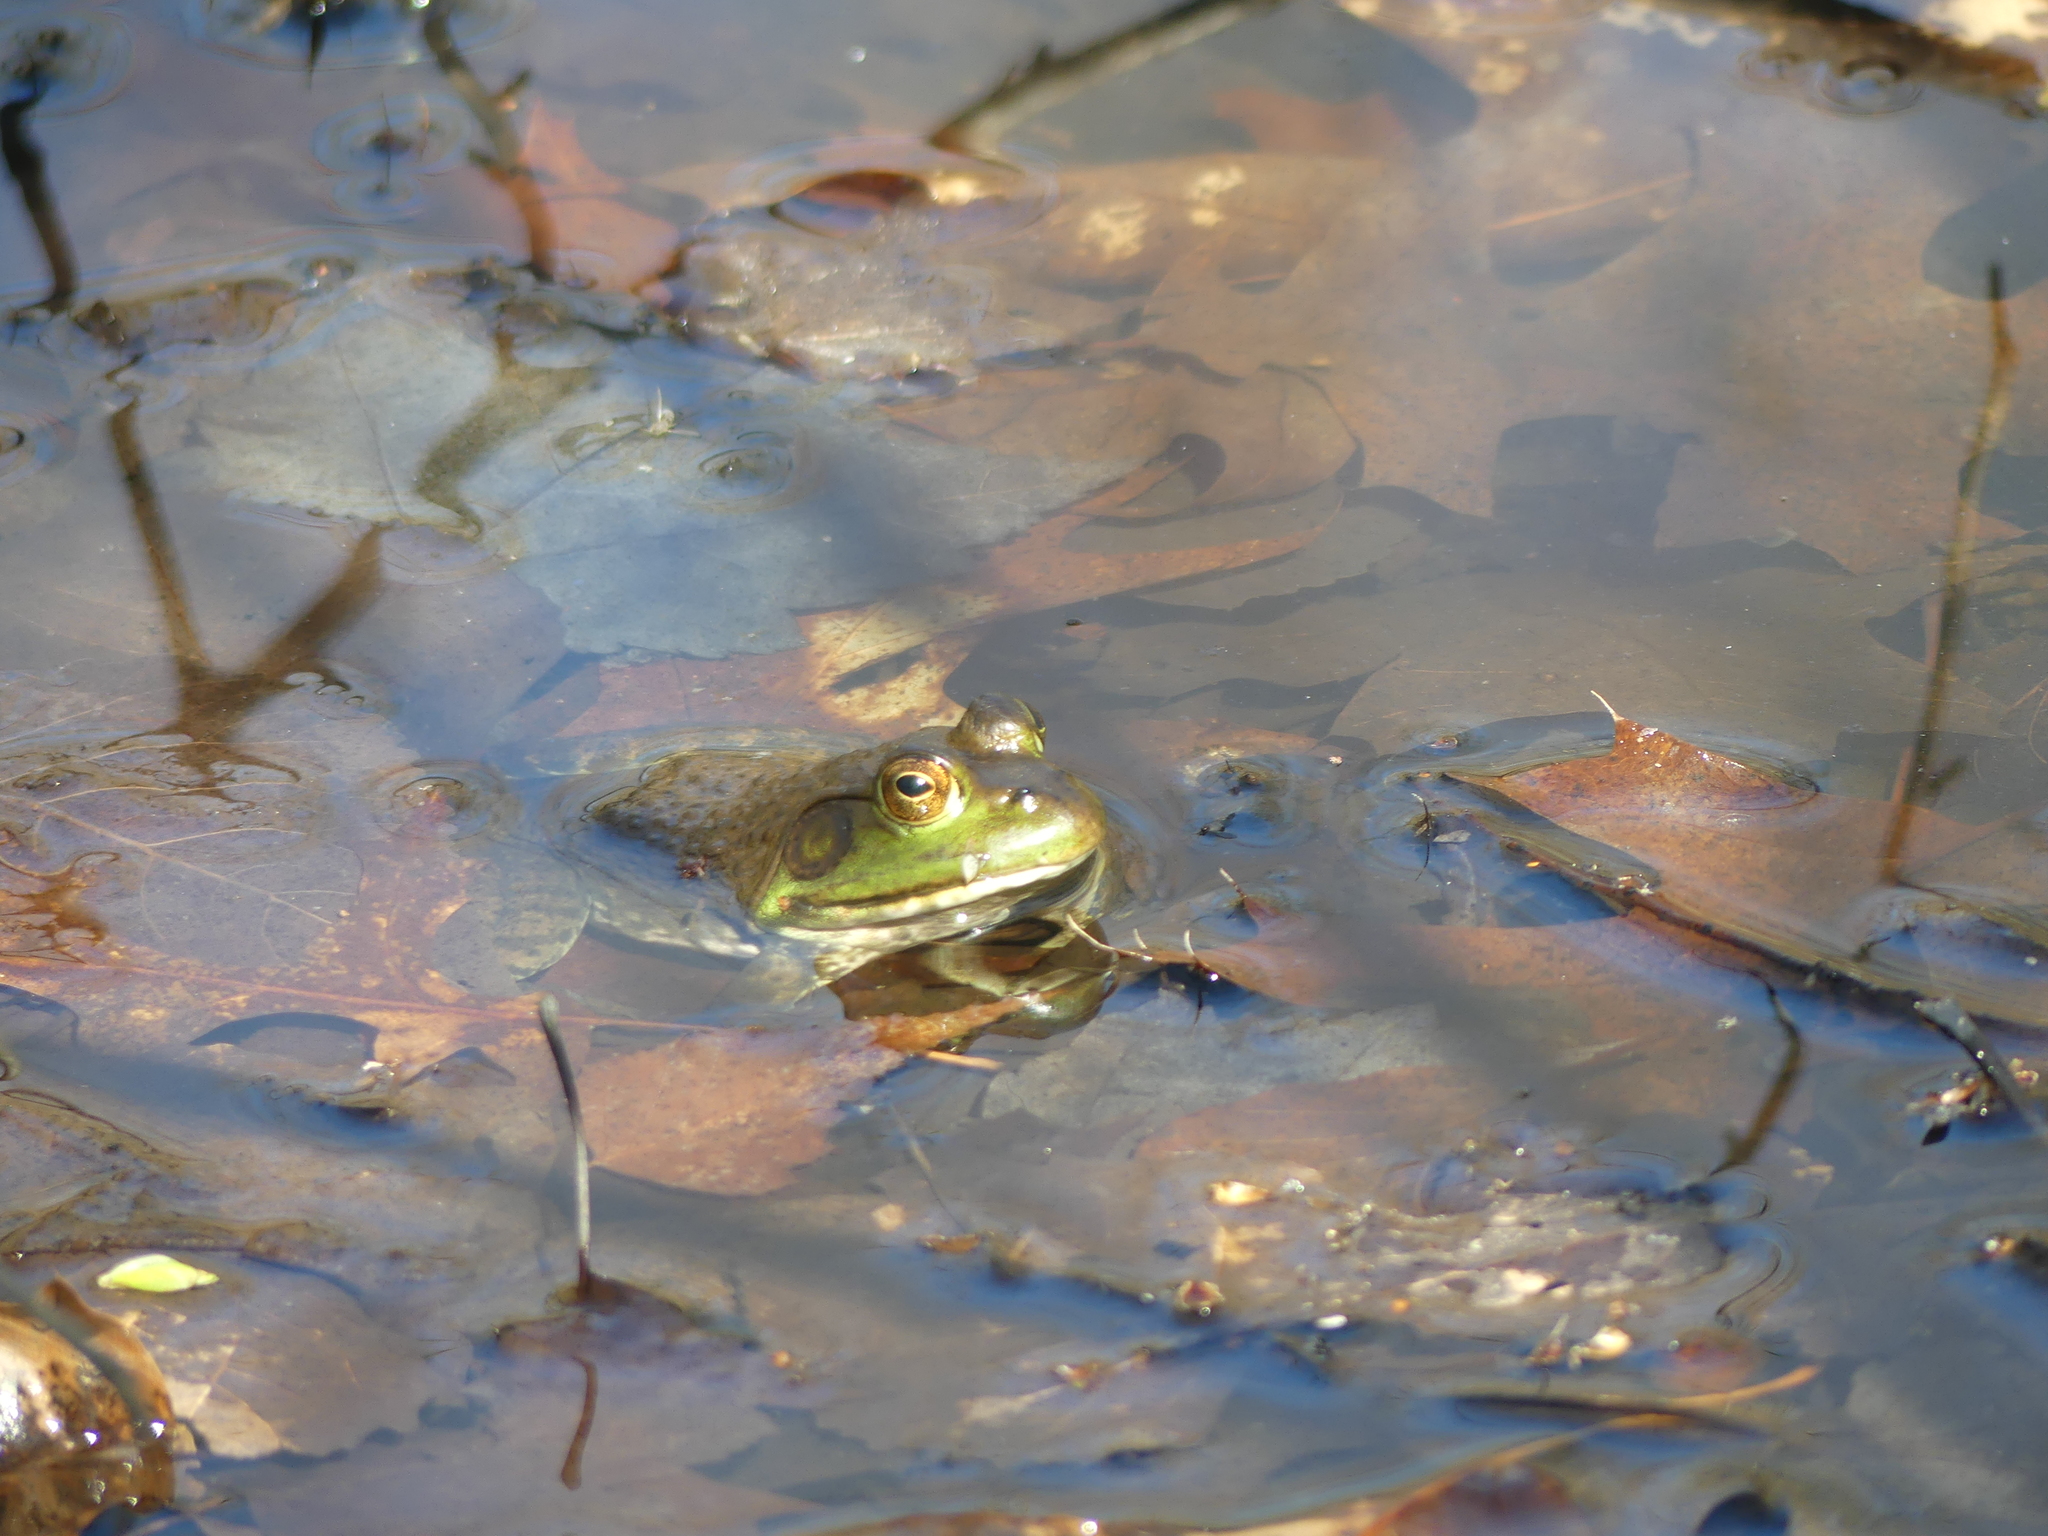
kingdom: Animalia
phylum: Chordata
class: Amphibia
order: Anura
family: Ranidae
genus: Lithobates
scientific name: Lithobates catesbeianus
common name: American bullfrog
